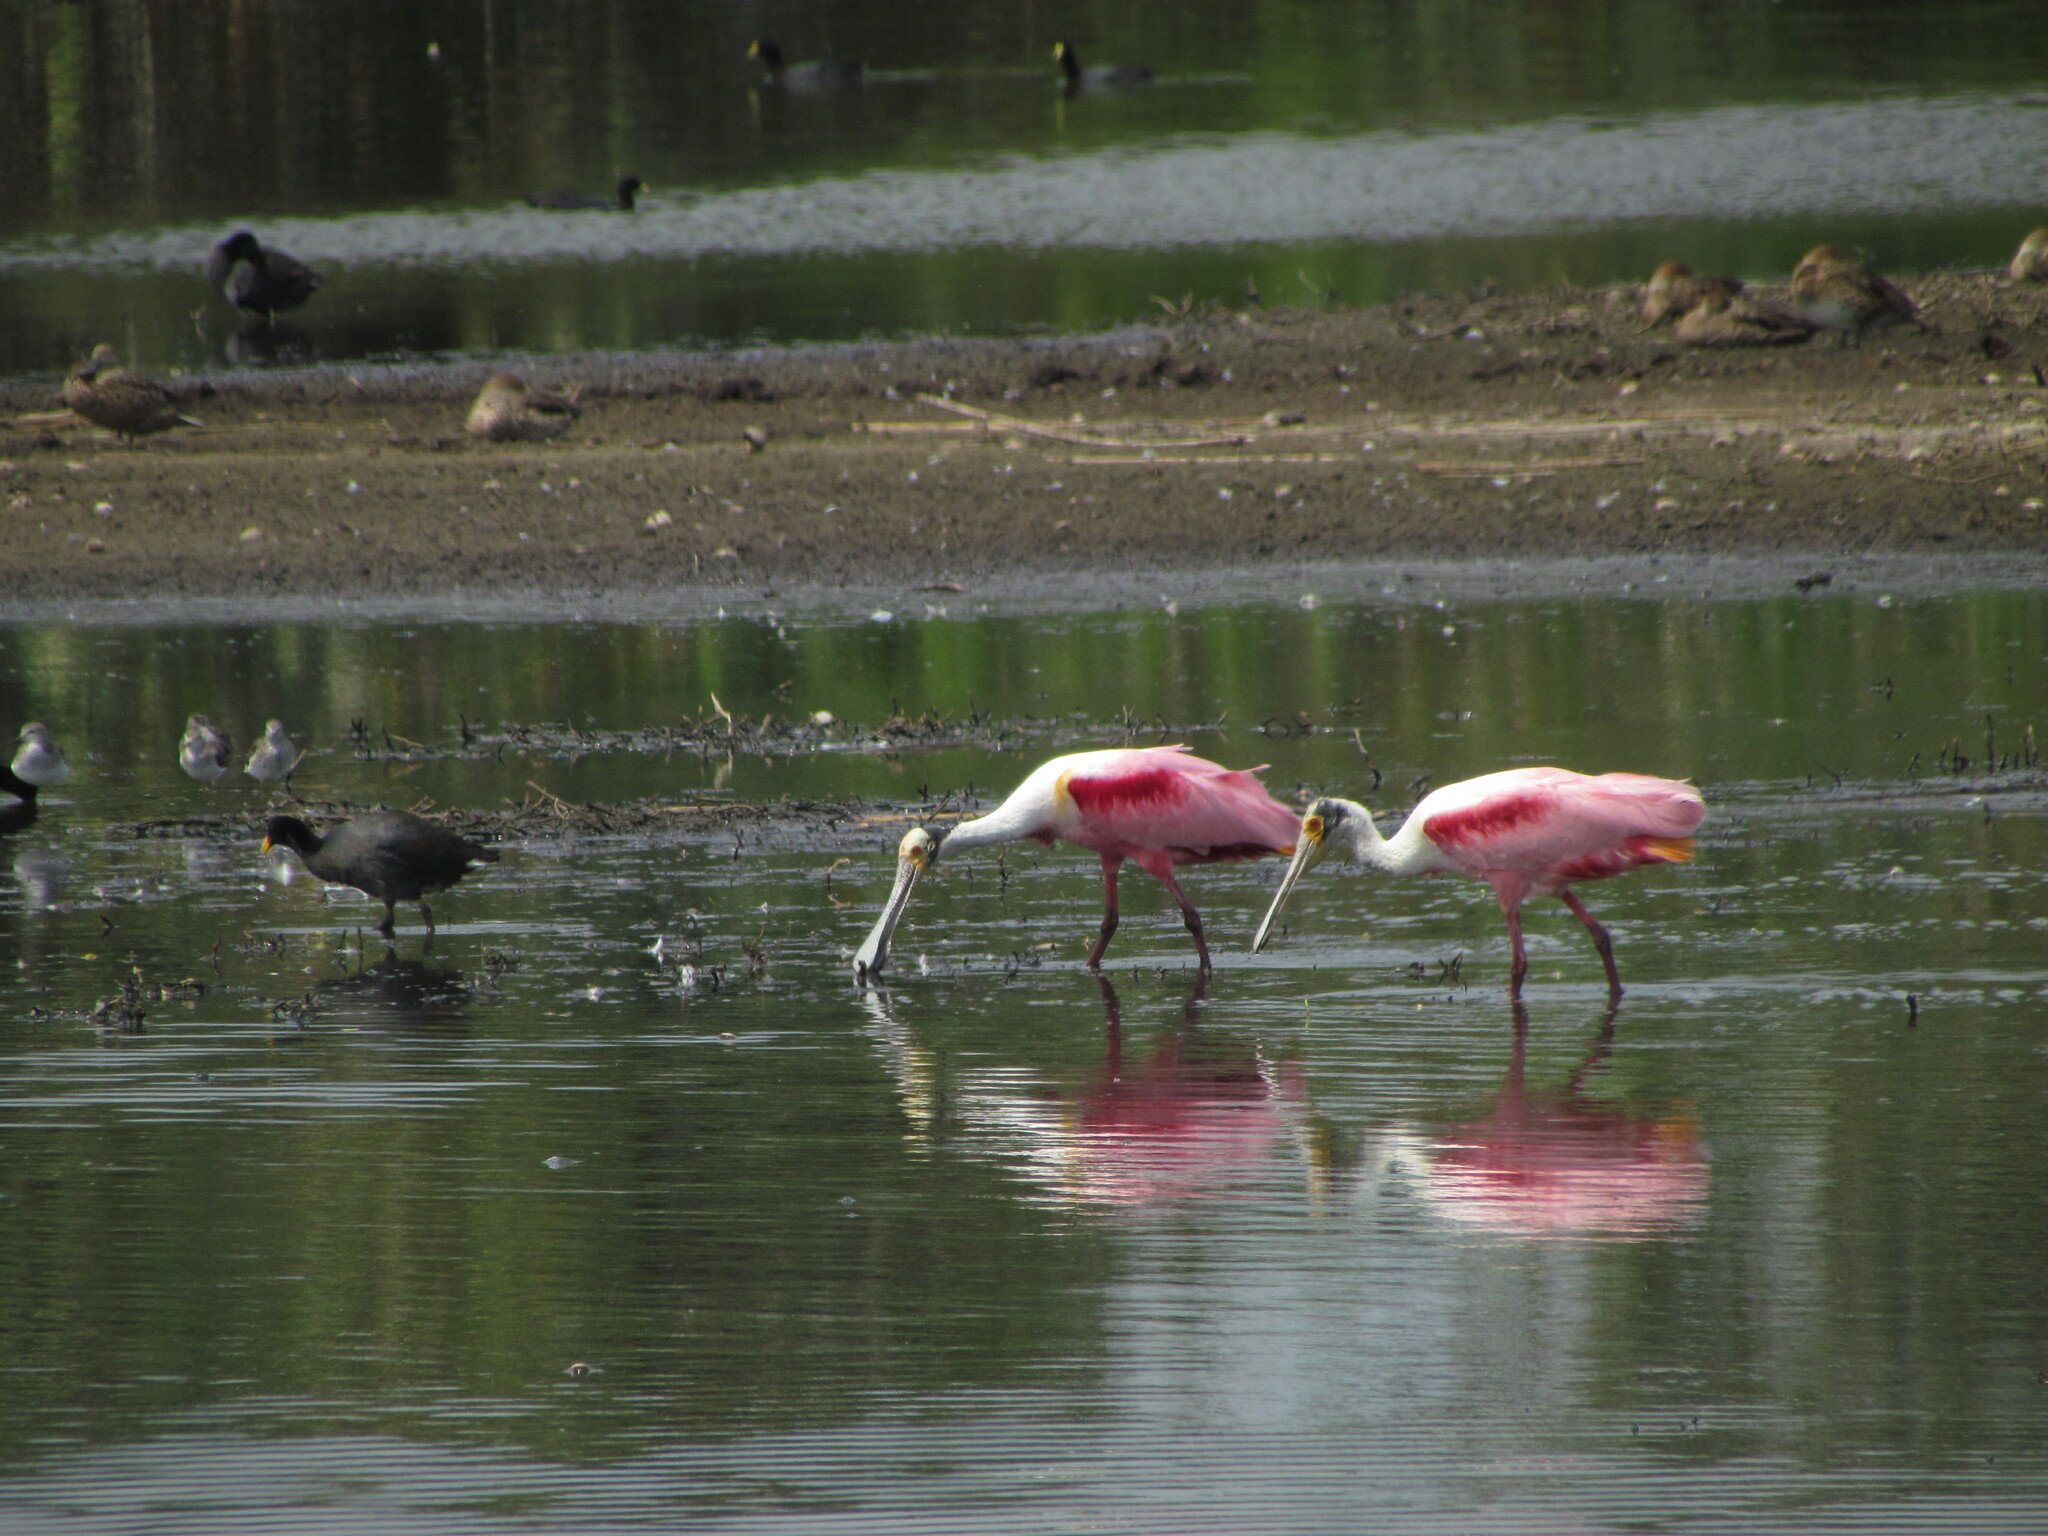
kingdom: Animalia
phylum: Chordata
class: Aves
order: Pelecaniformes
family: Threskiornithidae
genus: Platalea
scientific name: Platalea ajaja
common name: Roseate spoonbill
